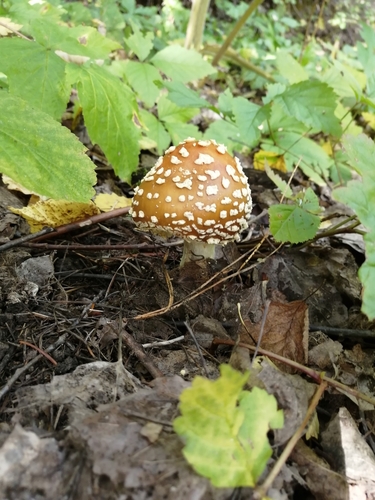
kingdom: Fungi
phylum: Basidiomycota
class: Agaricomycetes
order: Agaricales
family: Amanitaceae
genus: Amanita
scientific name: Amanita regalis
